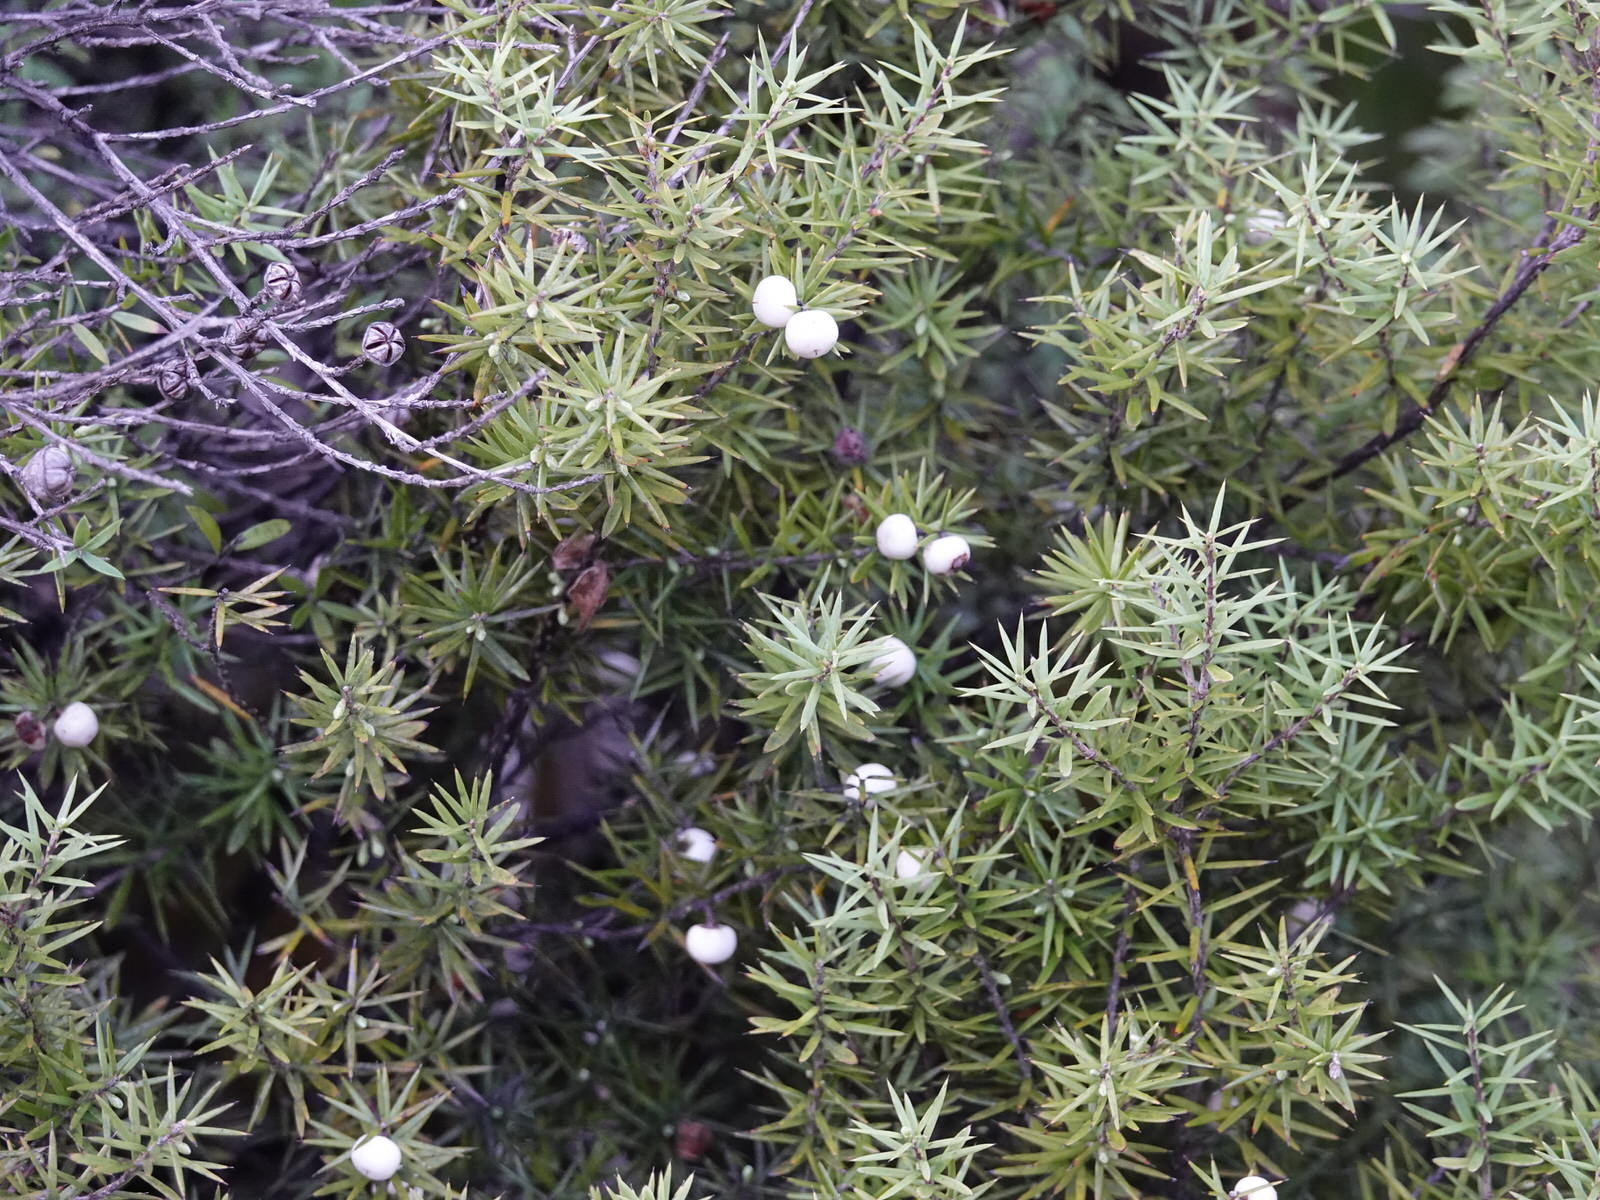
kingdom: Plantae
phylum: Tracheophyta
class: Magnoliopsida
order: Ericales
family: Ericaceae
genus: Leptecophylla
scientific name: Leptecophylla juniperina
